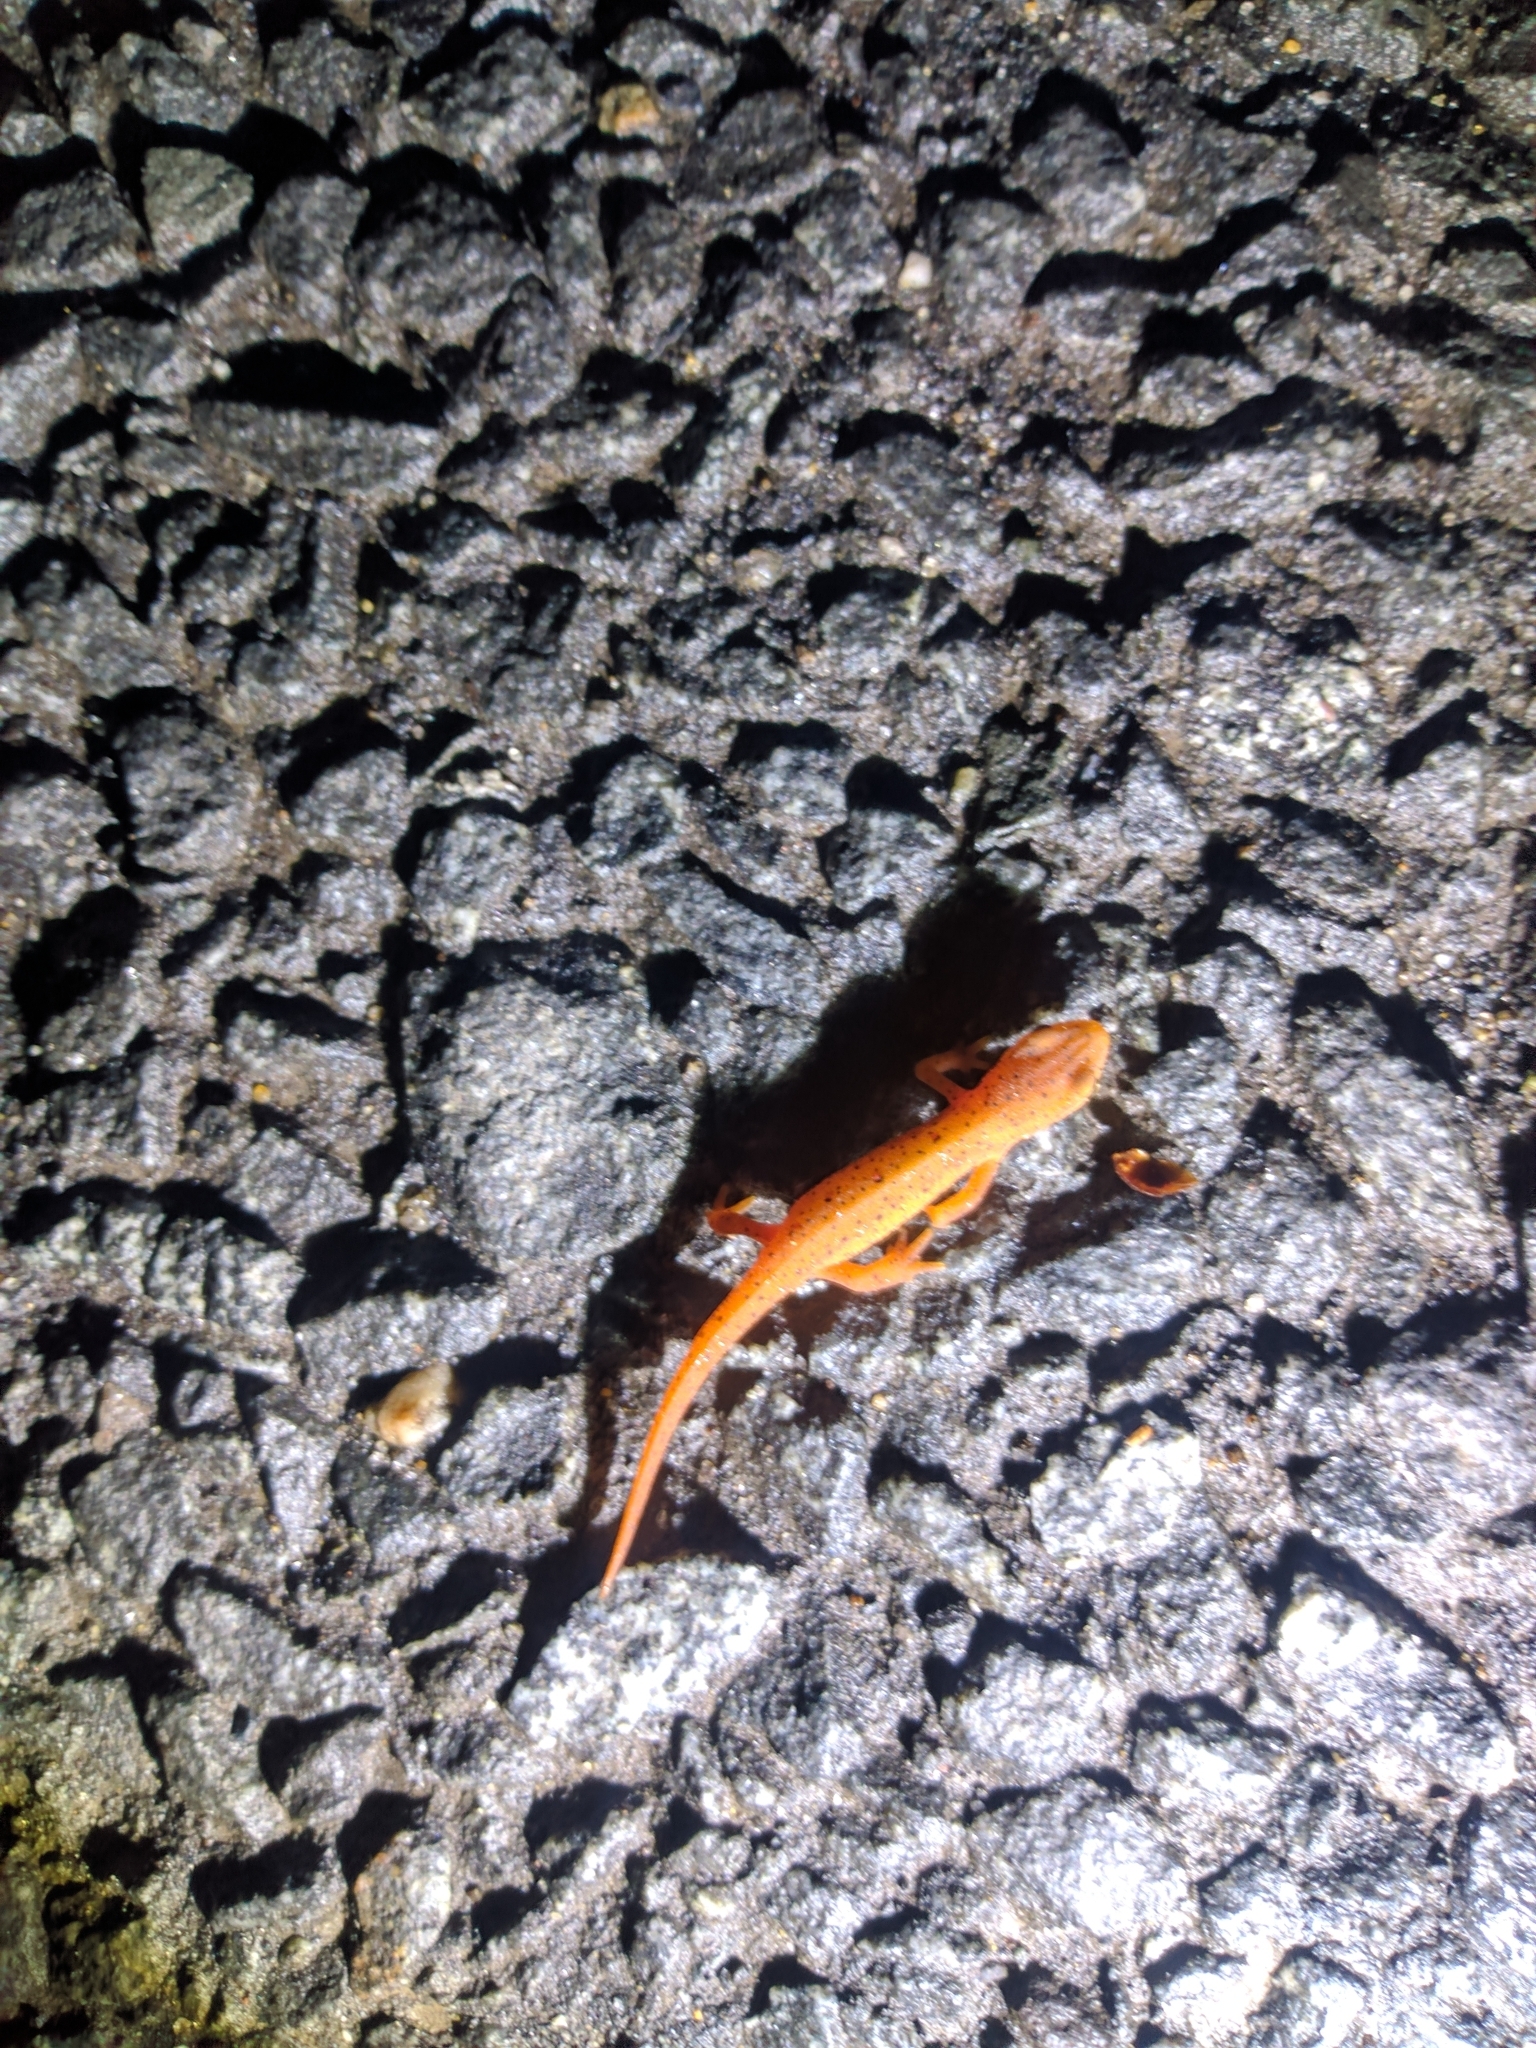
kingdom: Animalia
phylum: Chordata
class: Amphibia
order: Caudata
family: Salamandridae
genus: Notophthalmus
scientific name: Notophthalmus viridescens
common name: Eastern newt
